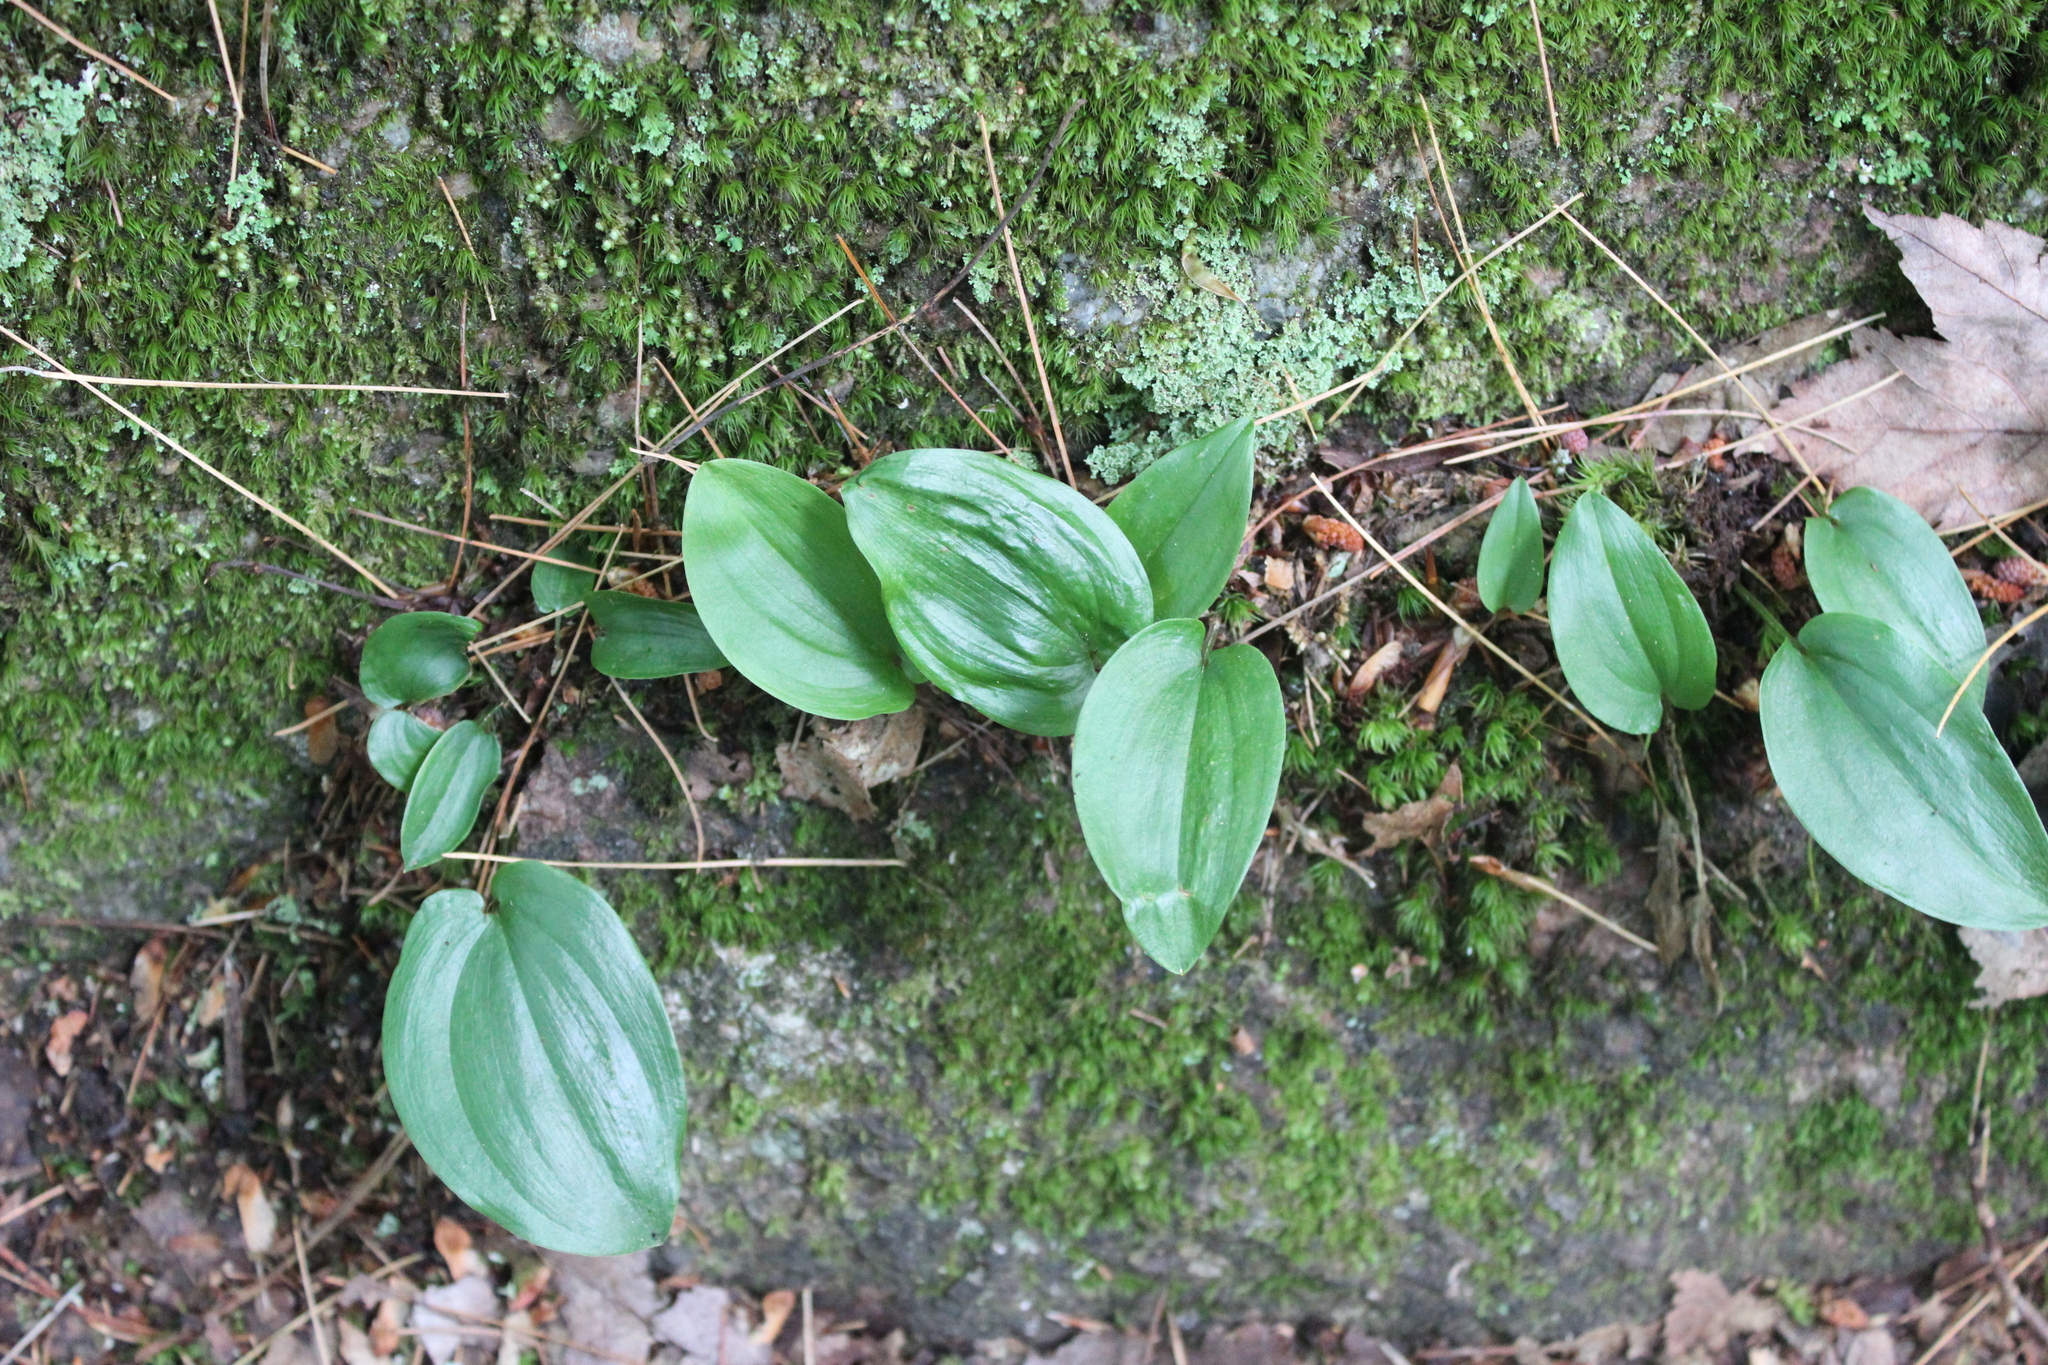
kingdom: Plantae
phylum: Tracheophyta
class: Liliopsida
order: Asparagales
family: Asparagaceae
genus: Maianthemum
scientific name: Maianthemum canadense
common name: False lily-of-the-valley
